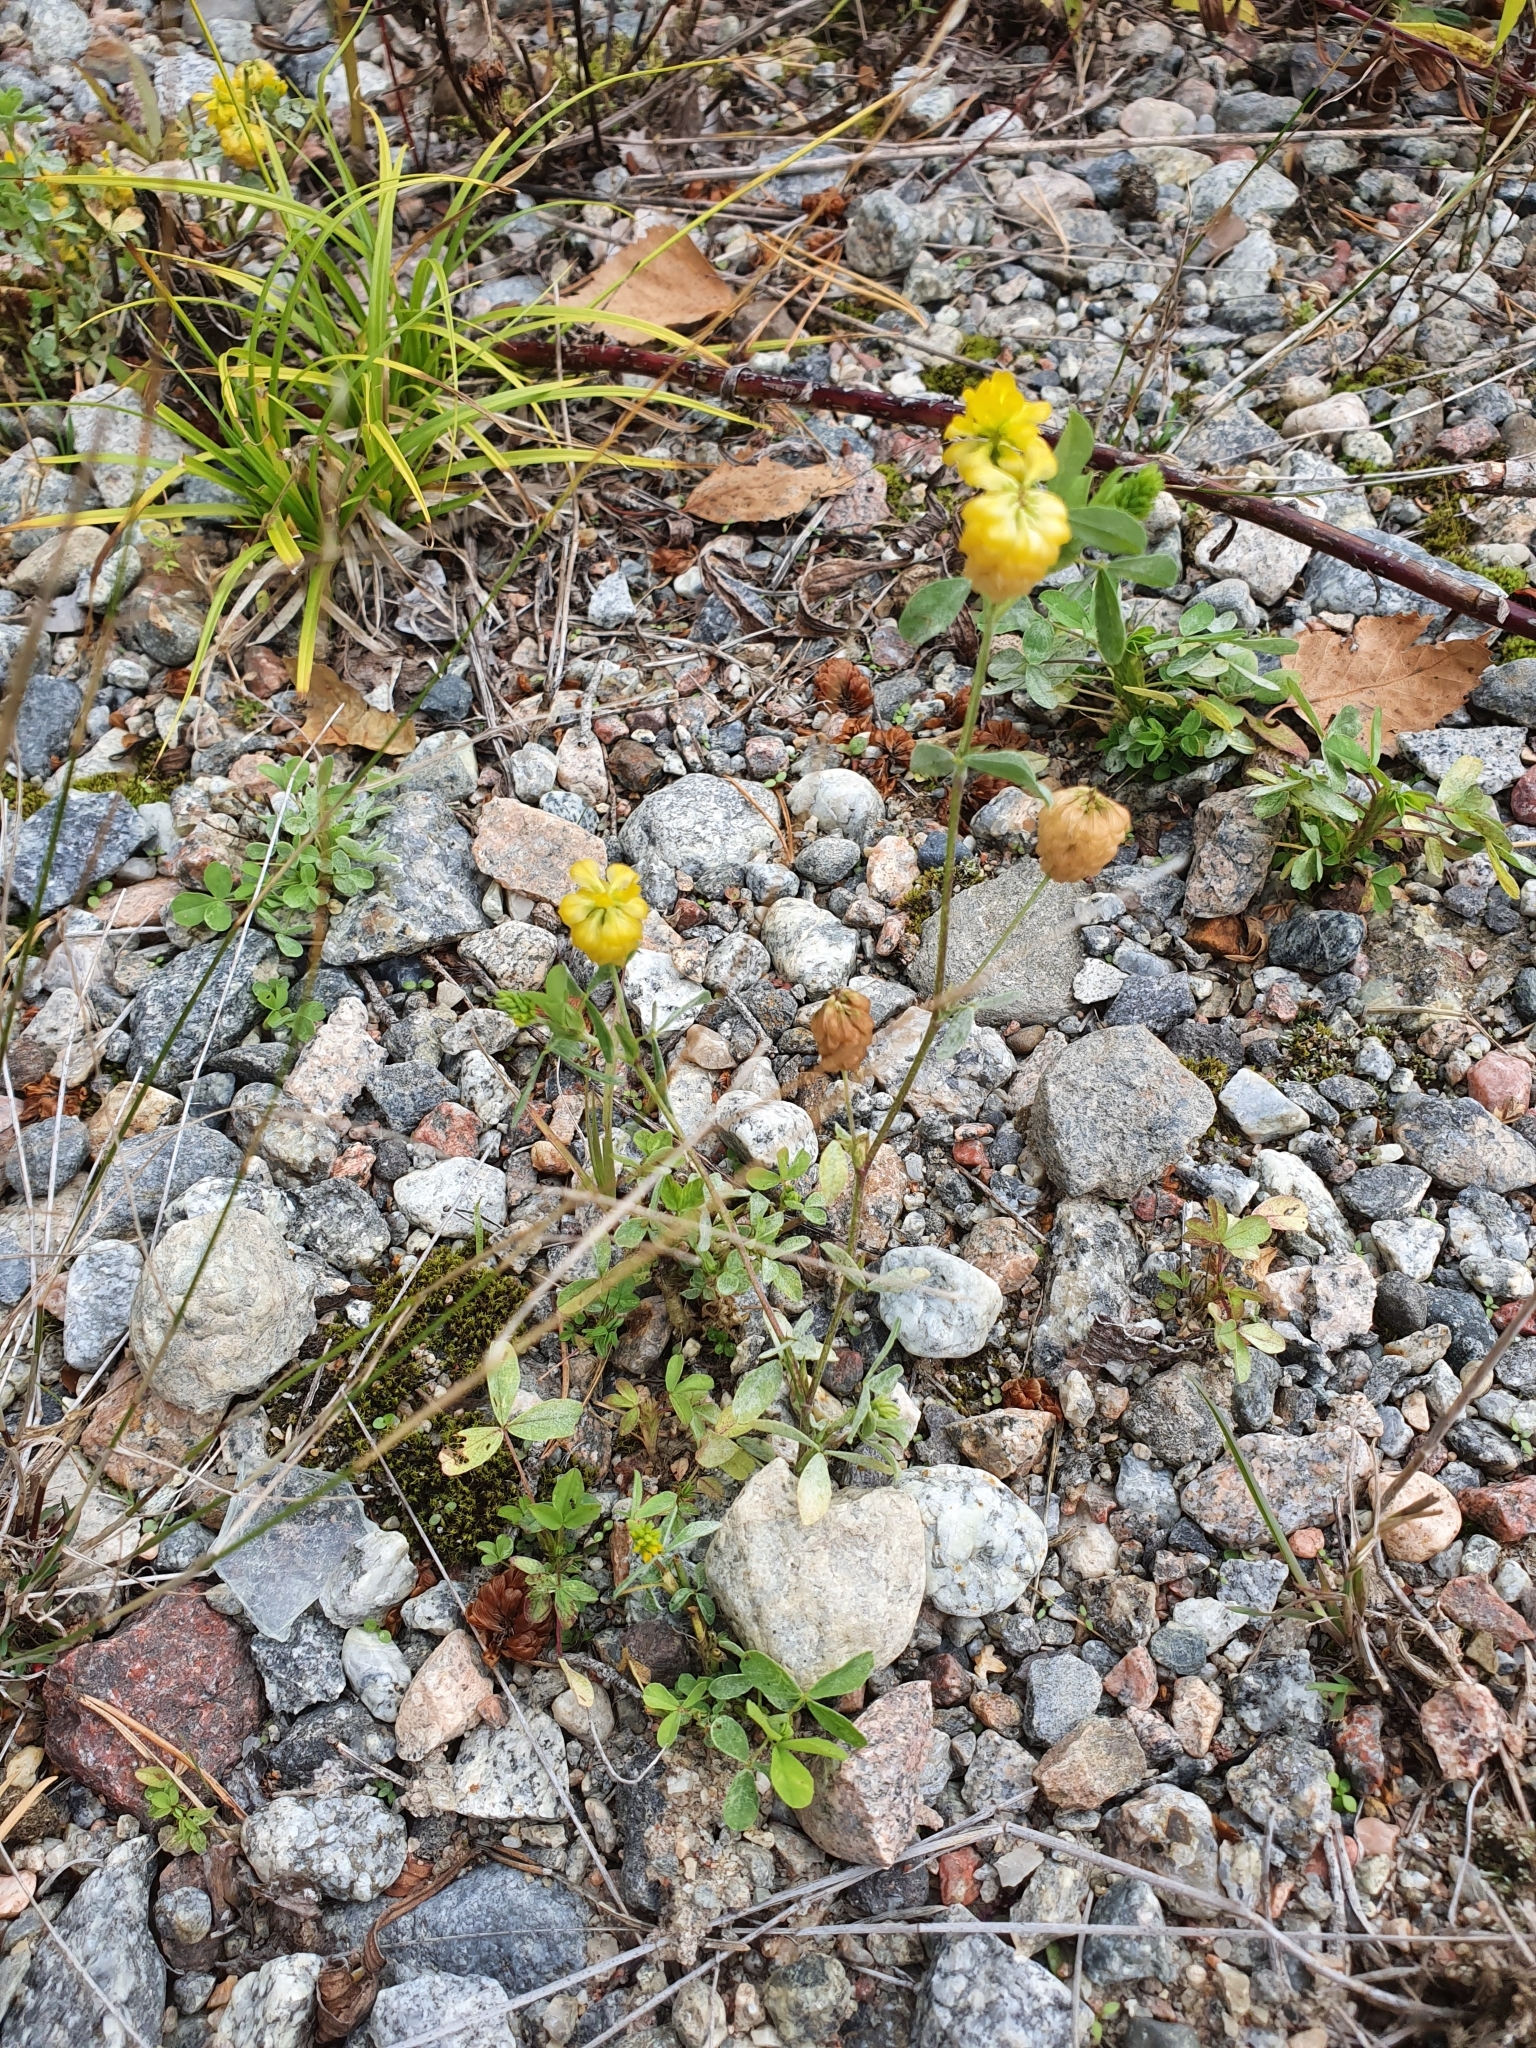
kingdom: Plantae
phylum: Tracheophyta
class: Magnoliopsida
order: Fabales
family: Fabaceae
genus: Trifolium
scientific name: Trifolium aureum
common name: Golden clover
